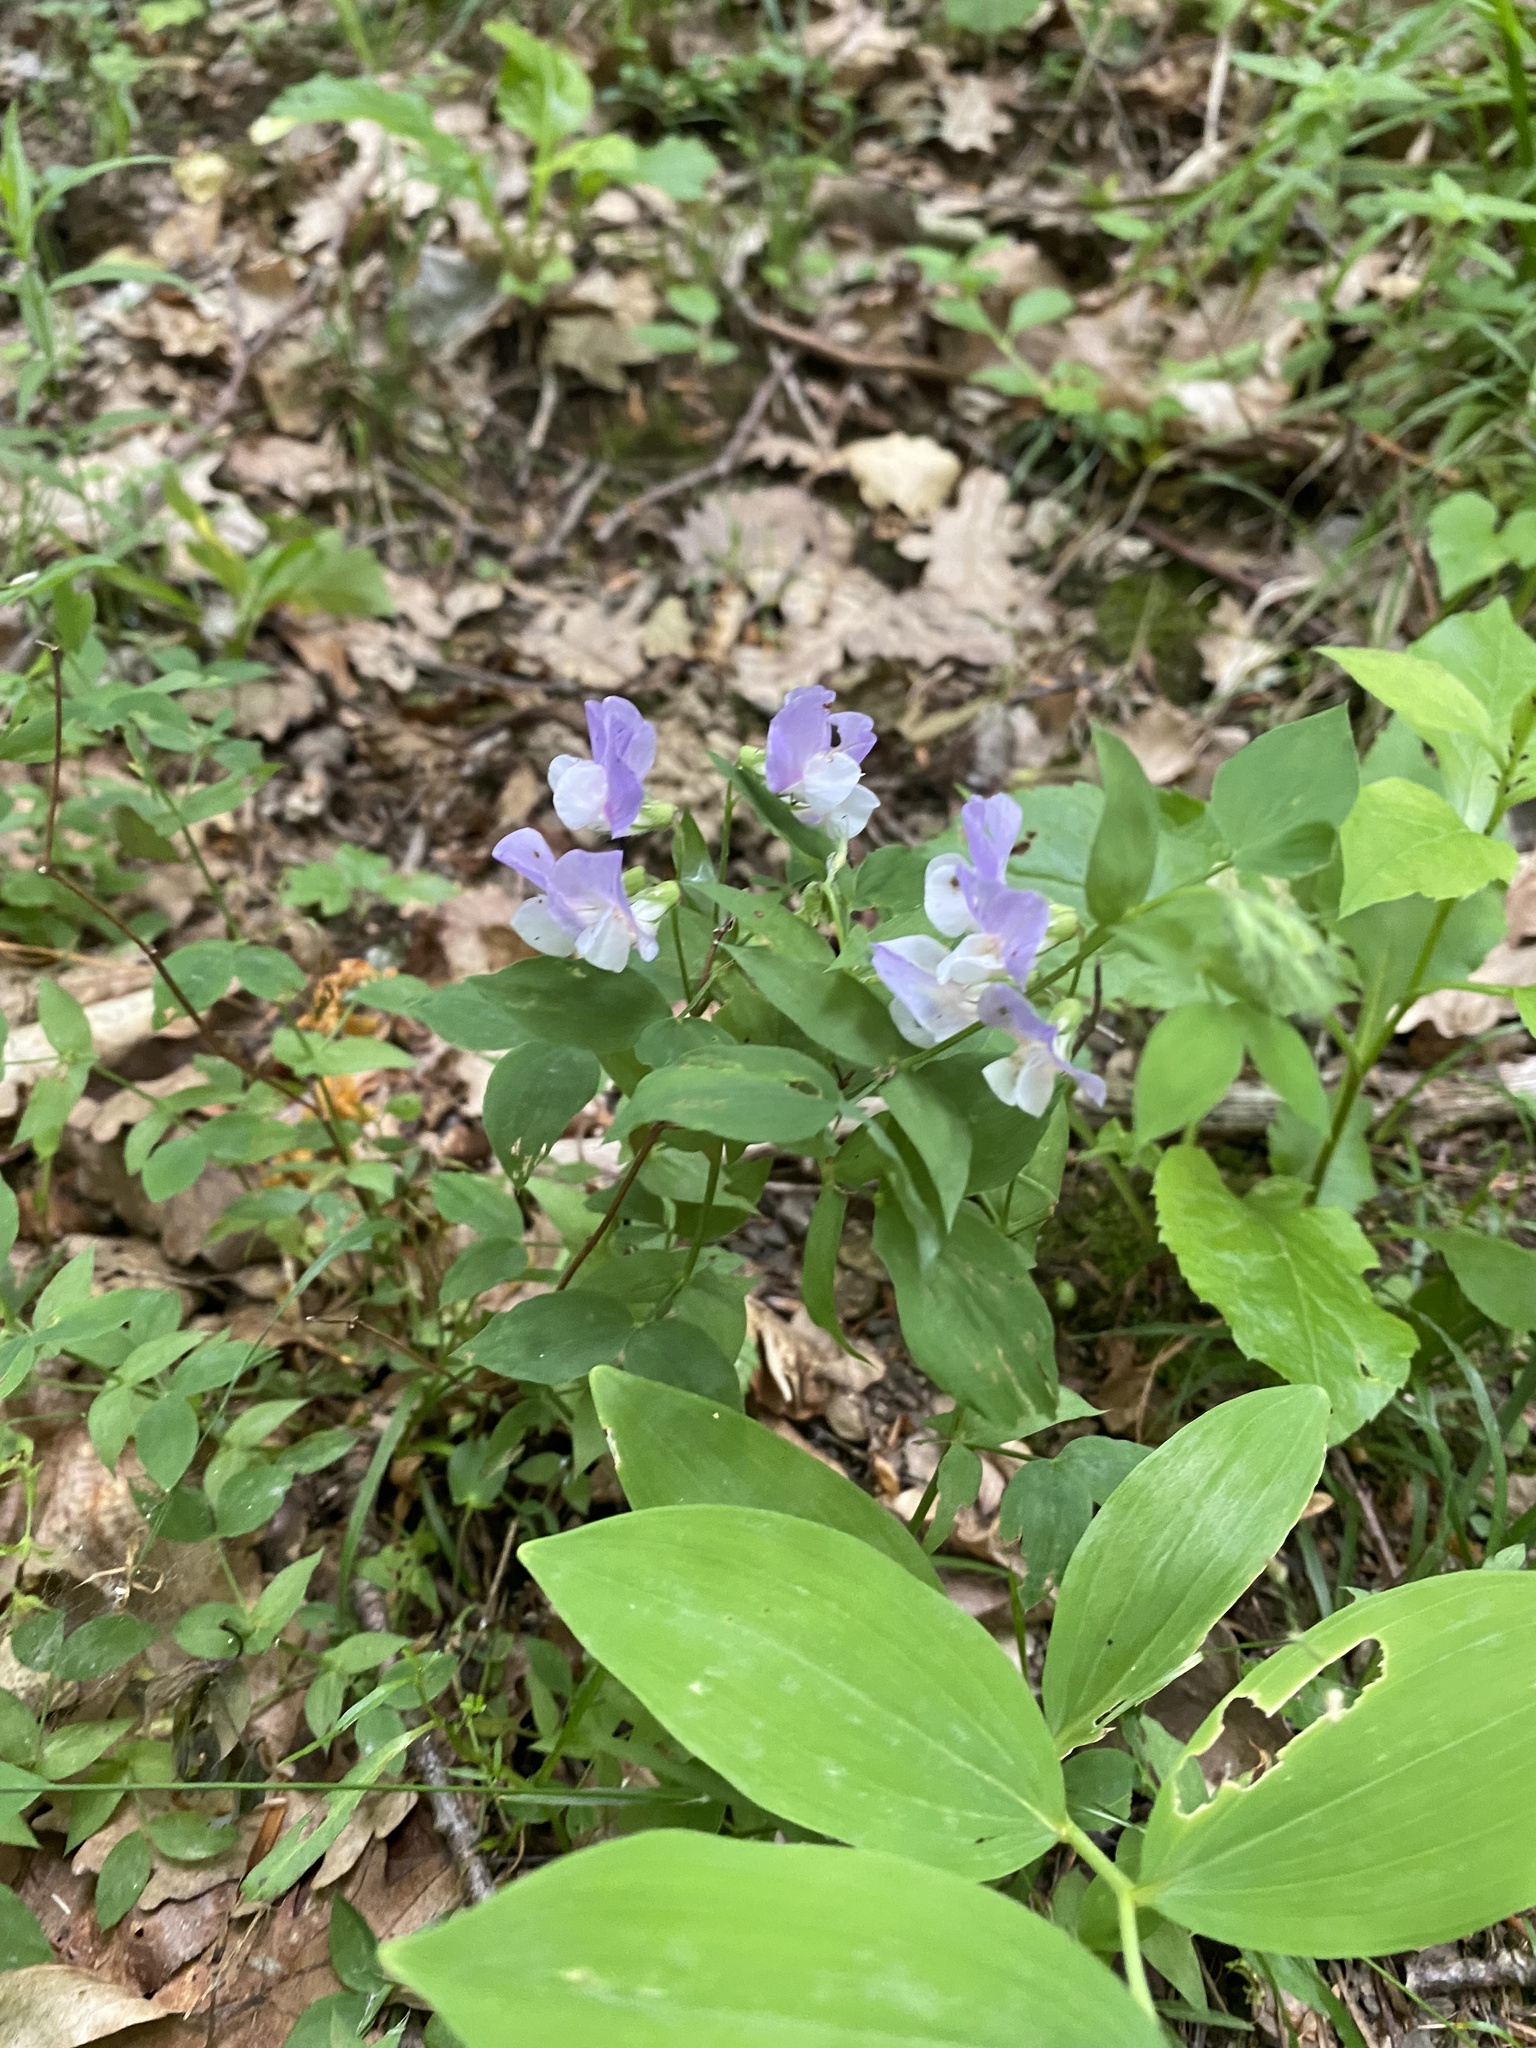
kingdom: Plantae
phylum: Tracheophyta
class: Magnoliopsida
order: Fabales
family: Fabaceae
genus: Lathyrus
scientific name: Lathyrus laxiflorus
